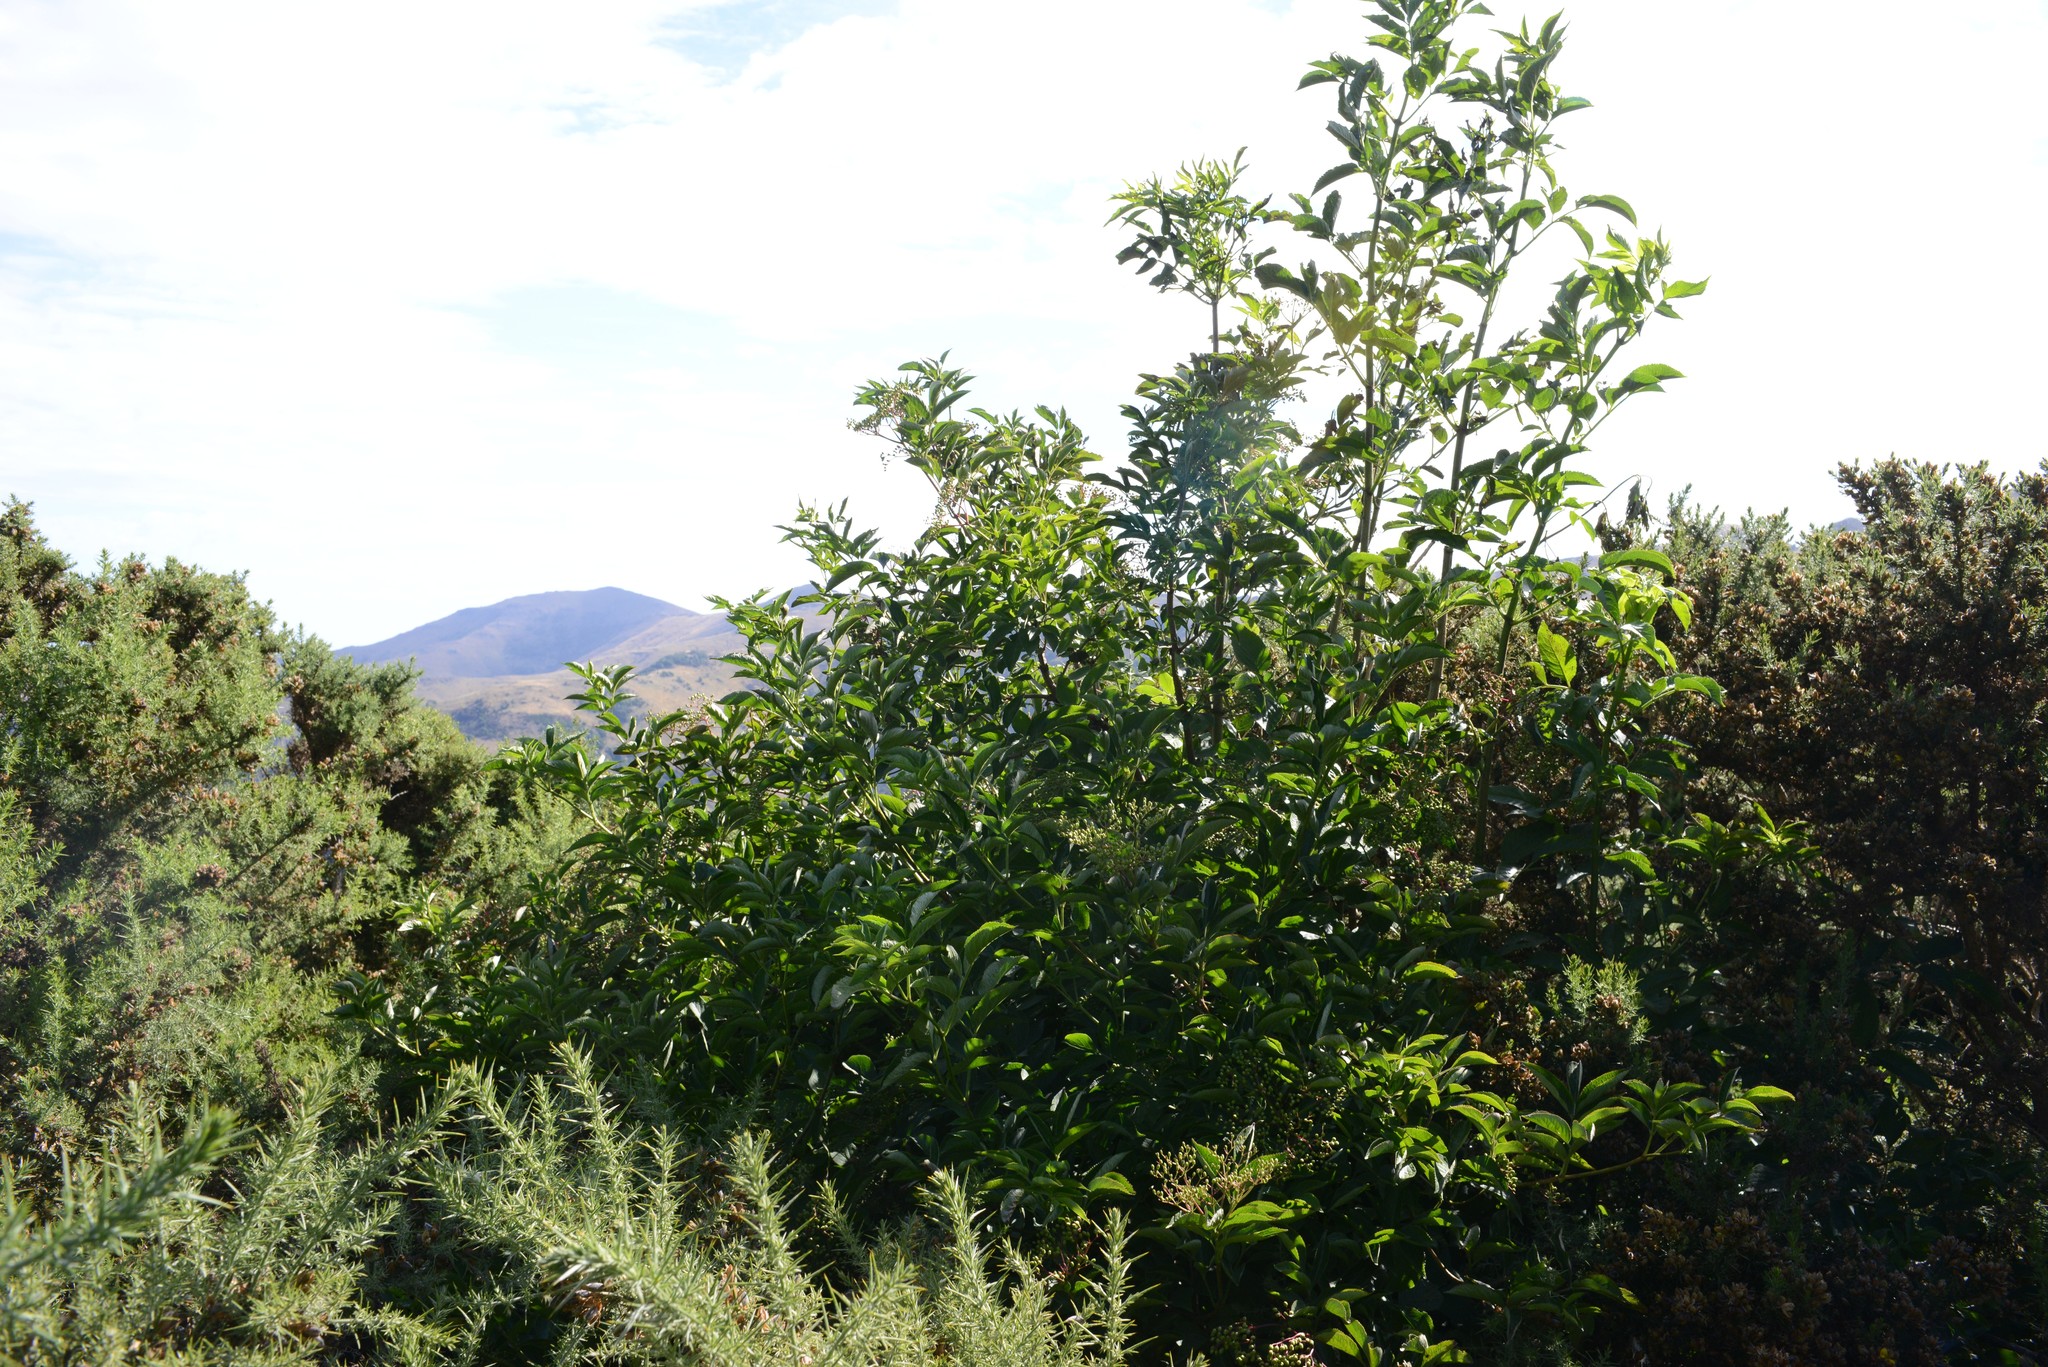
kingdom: Plantae
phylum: Tracheophyta
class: Magnoliopsida
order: Dipsacales
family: Viburnaceae
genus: Sambucus
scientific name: Sambucus nigra
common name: Elder
